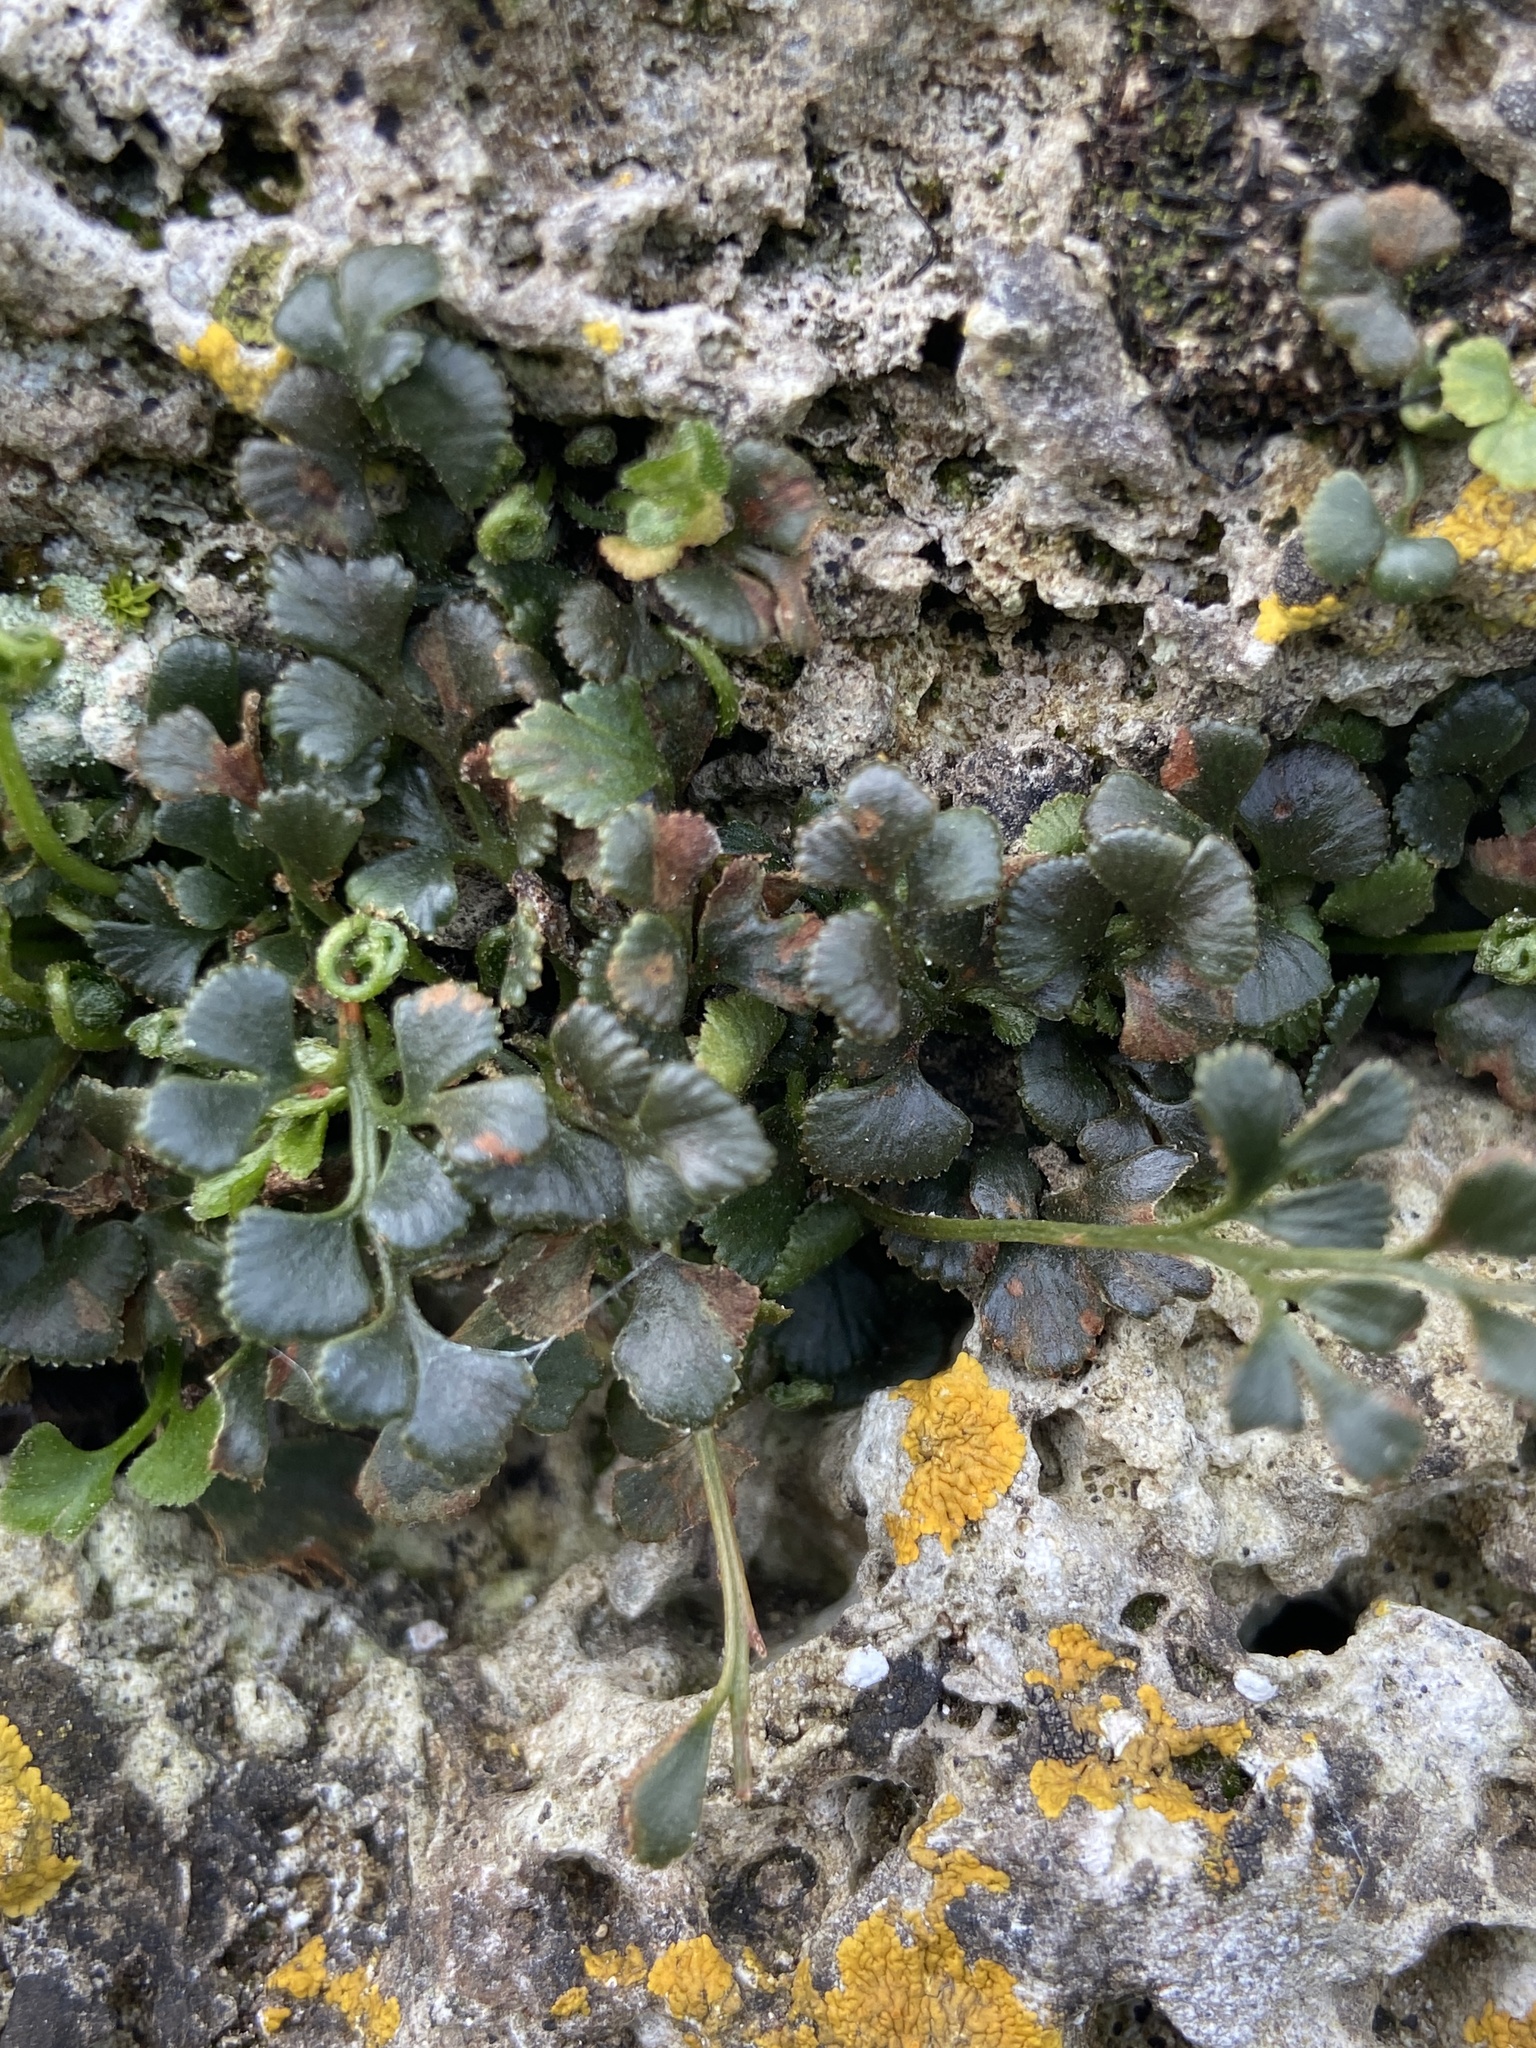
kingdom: Plantae
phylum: Tracheophyta
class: Polypodiopsida
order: Polypodiales
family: Aspleniaceae
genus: Asplenium
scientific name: Asplenium ruta-muraria
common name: Wall-rue
